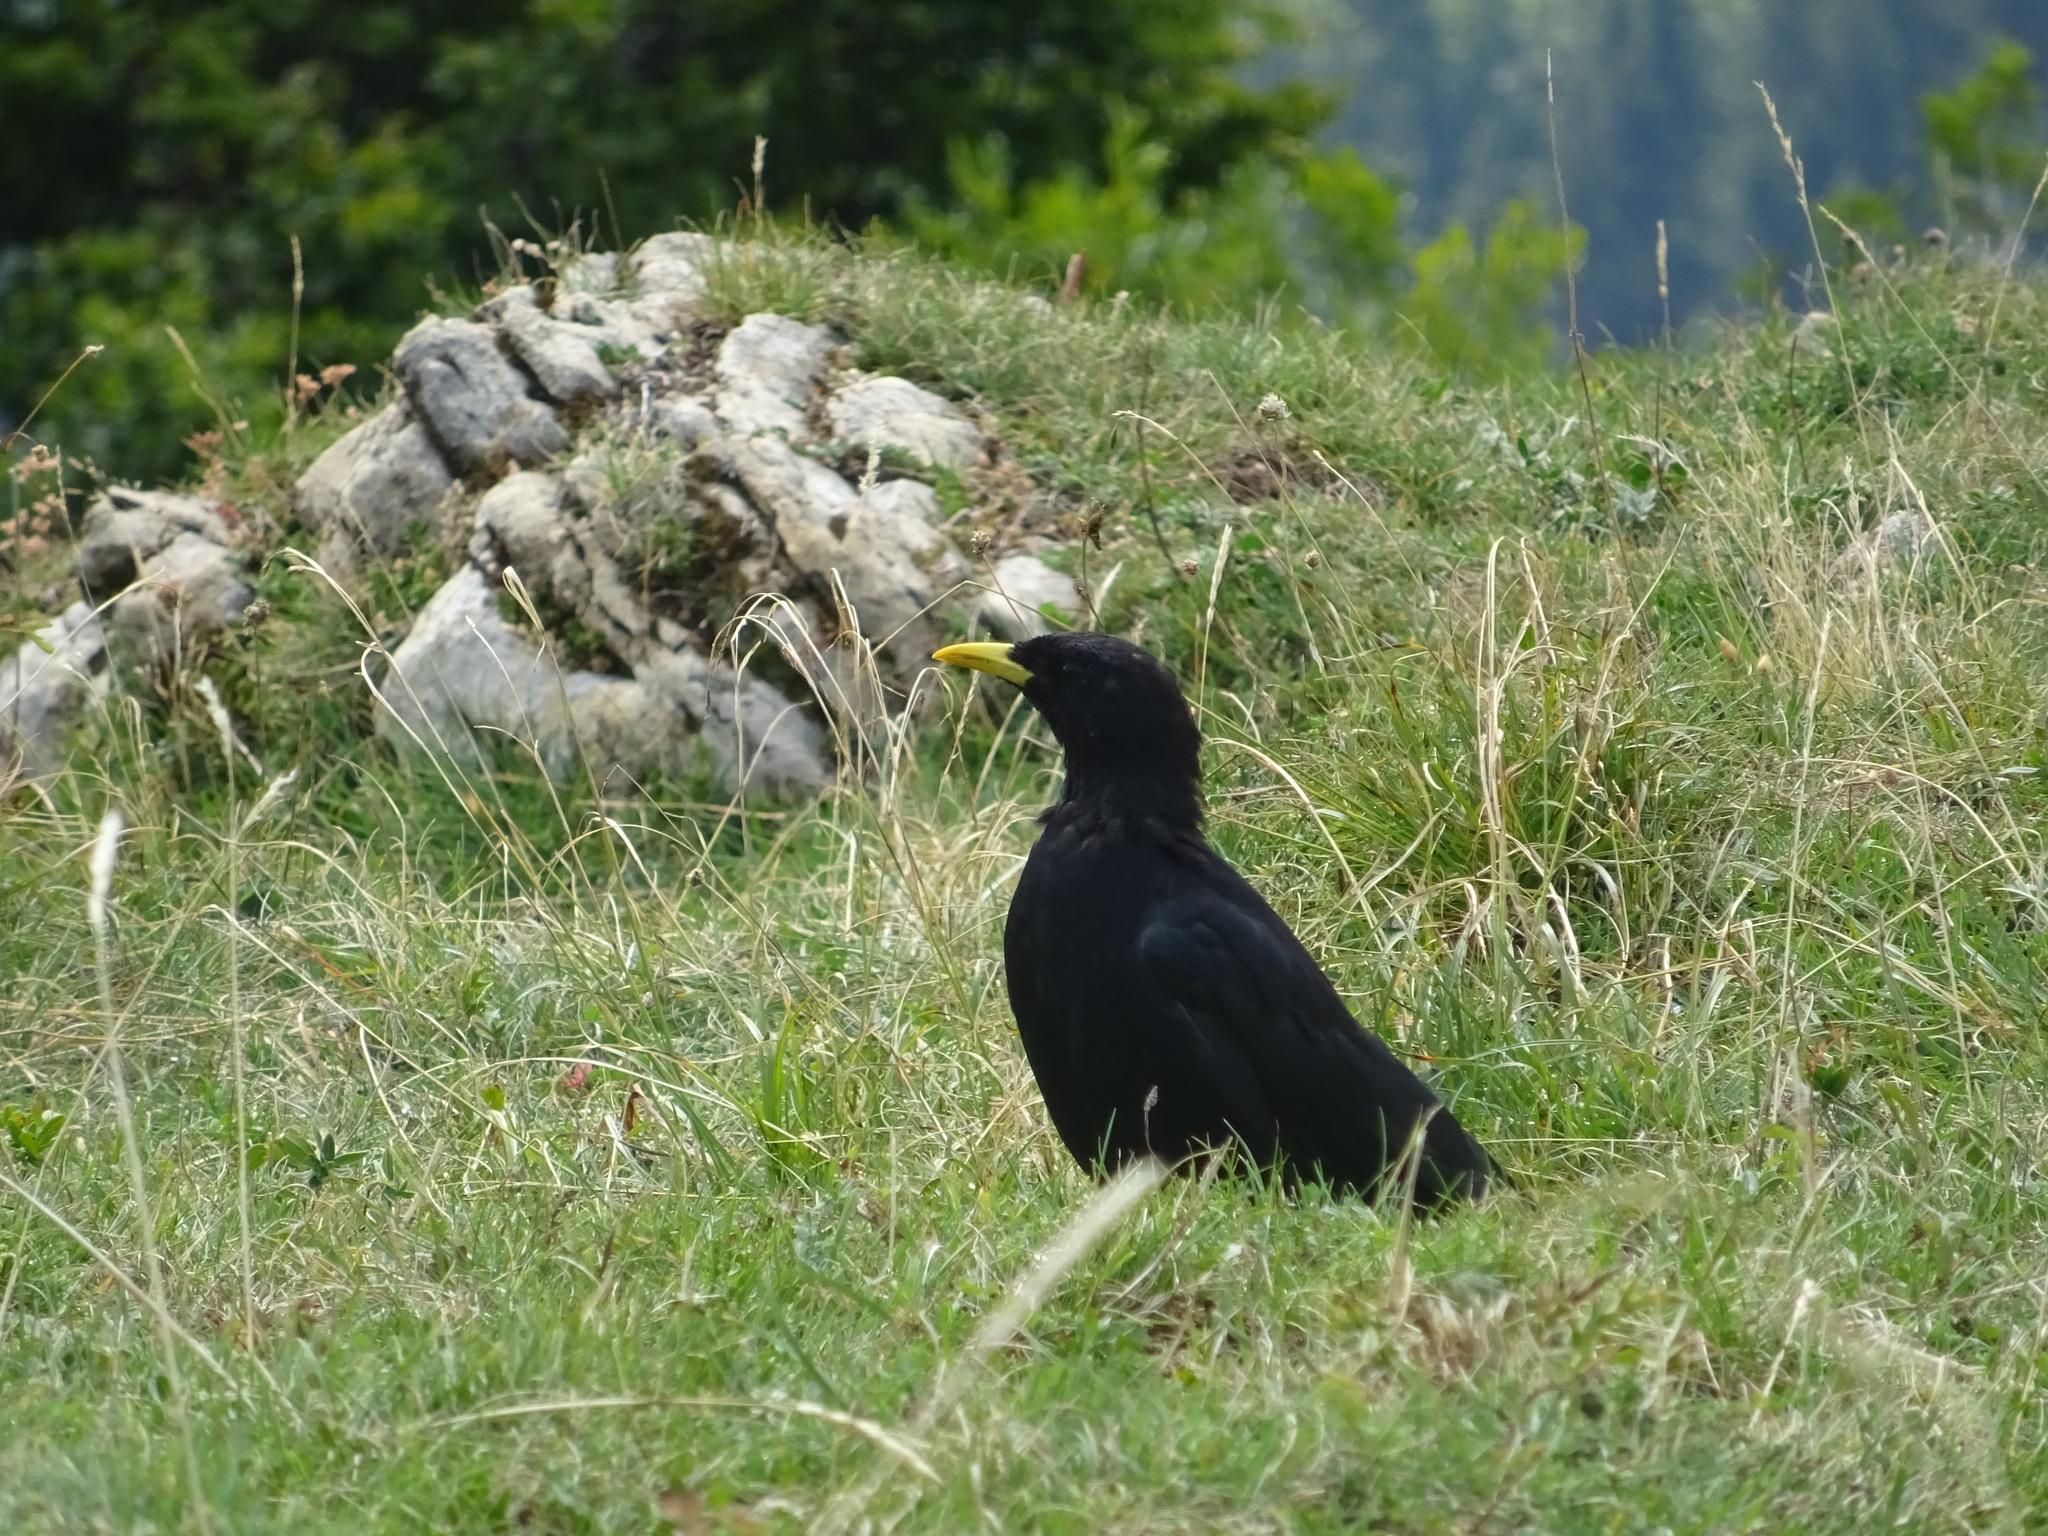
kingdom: Animalia
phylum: Chordata
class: Aves
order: Passeriformes
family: Corvidae
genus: Pyrrhocorax
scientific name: Pyrrhocorax graculus
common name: Alpine chough
